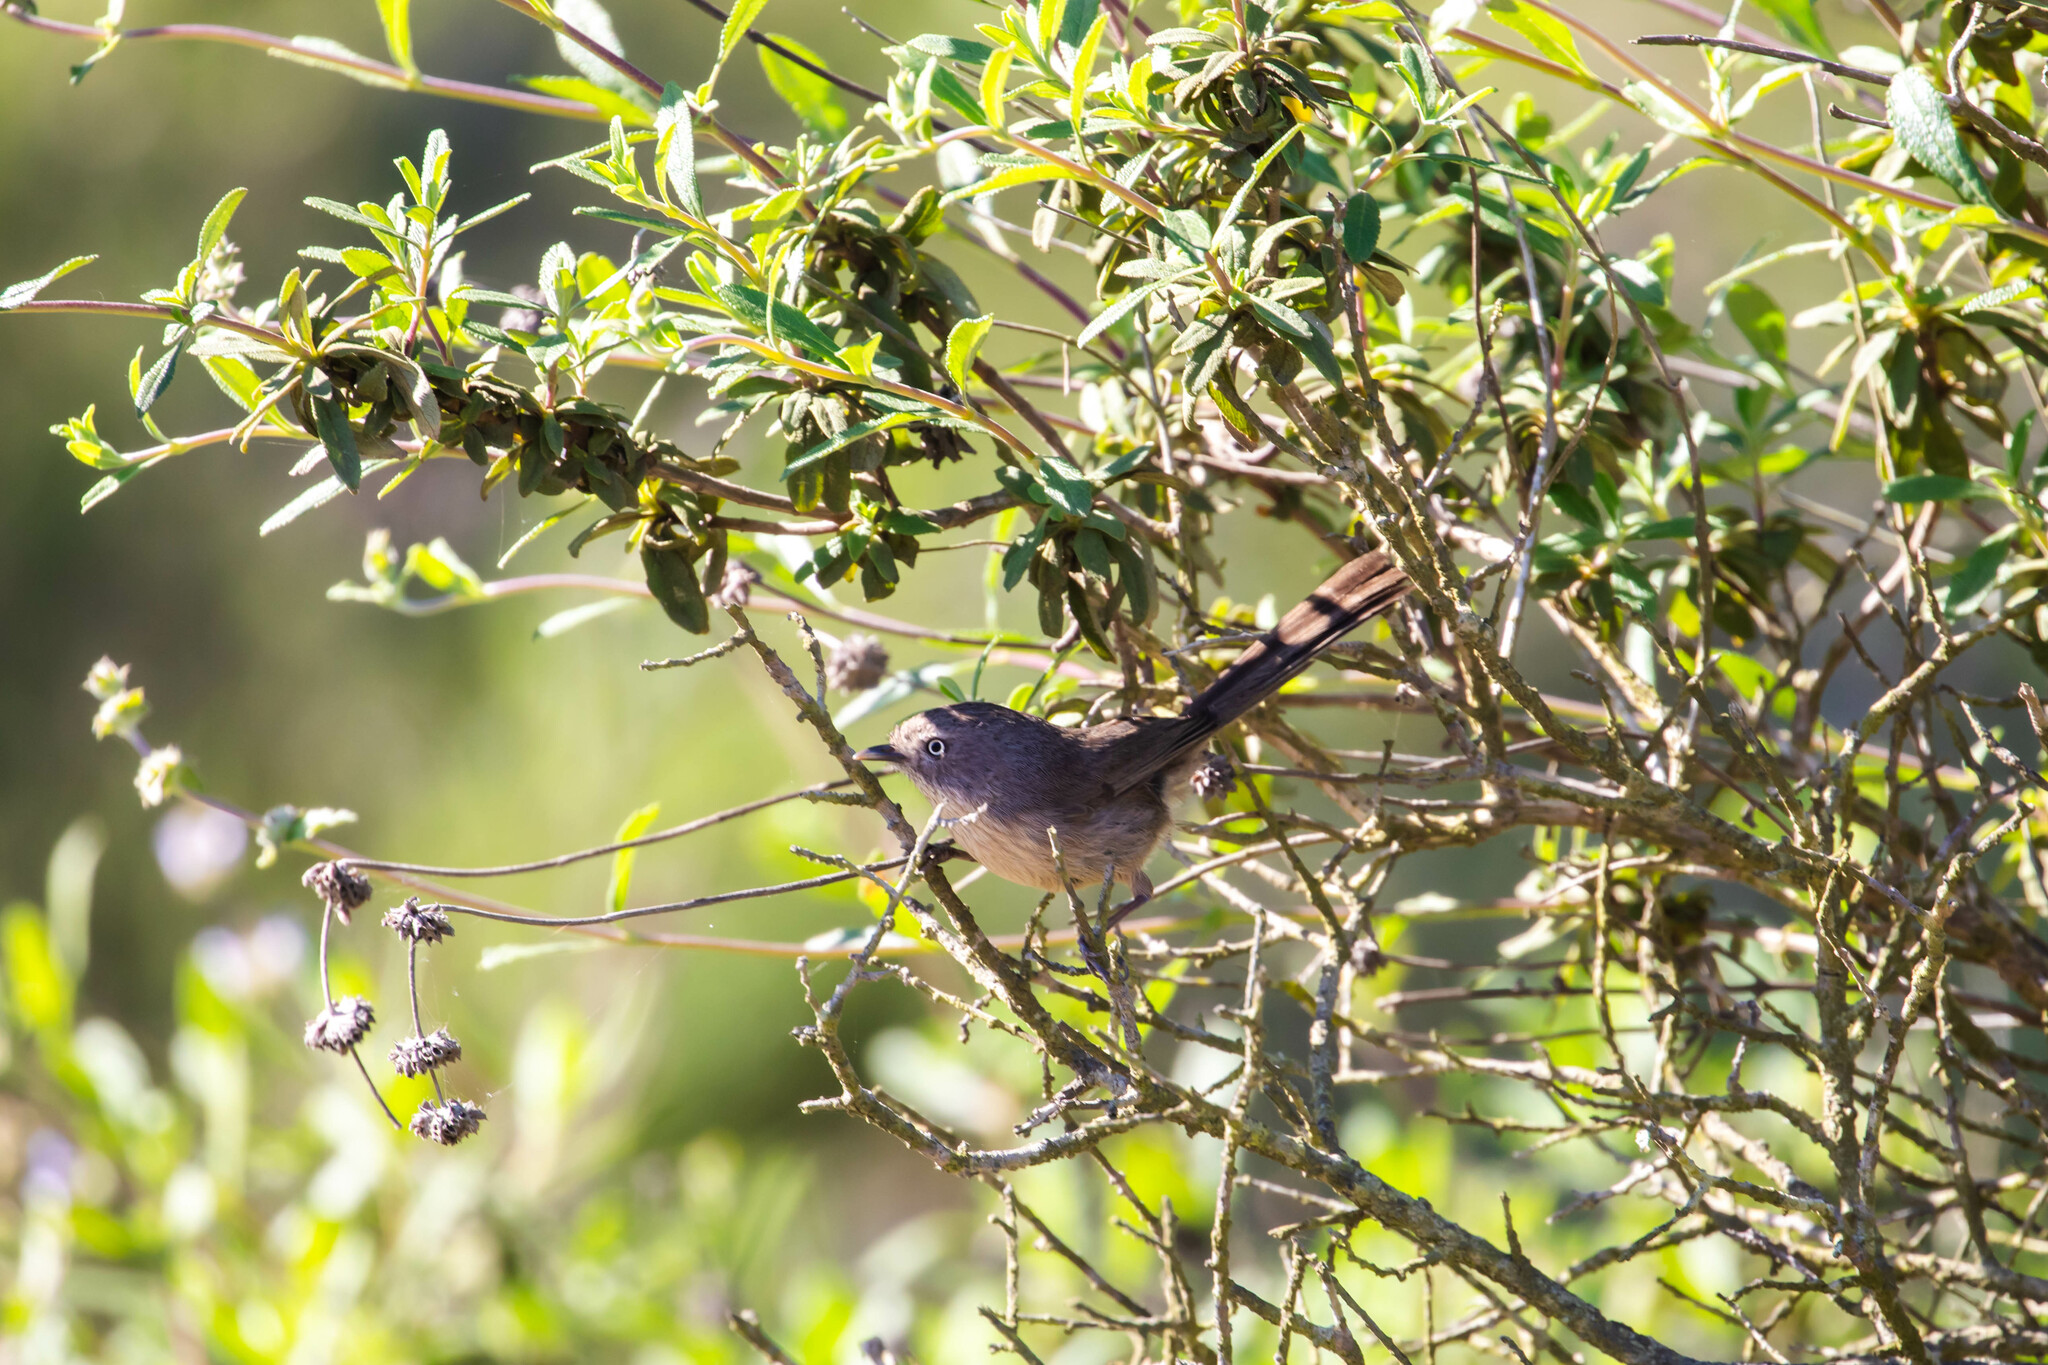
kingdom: Animalia
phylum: Chordata
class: Aves
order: Passeriformes
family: Sylviidae
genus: Chamaea
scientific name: Chamaea fasciata
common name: Wrentit
